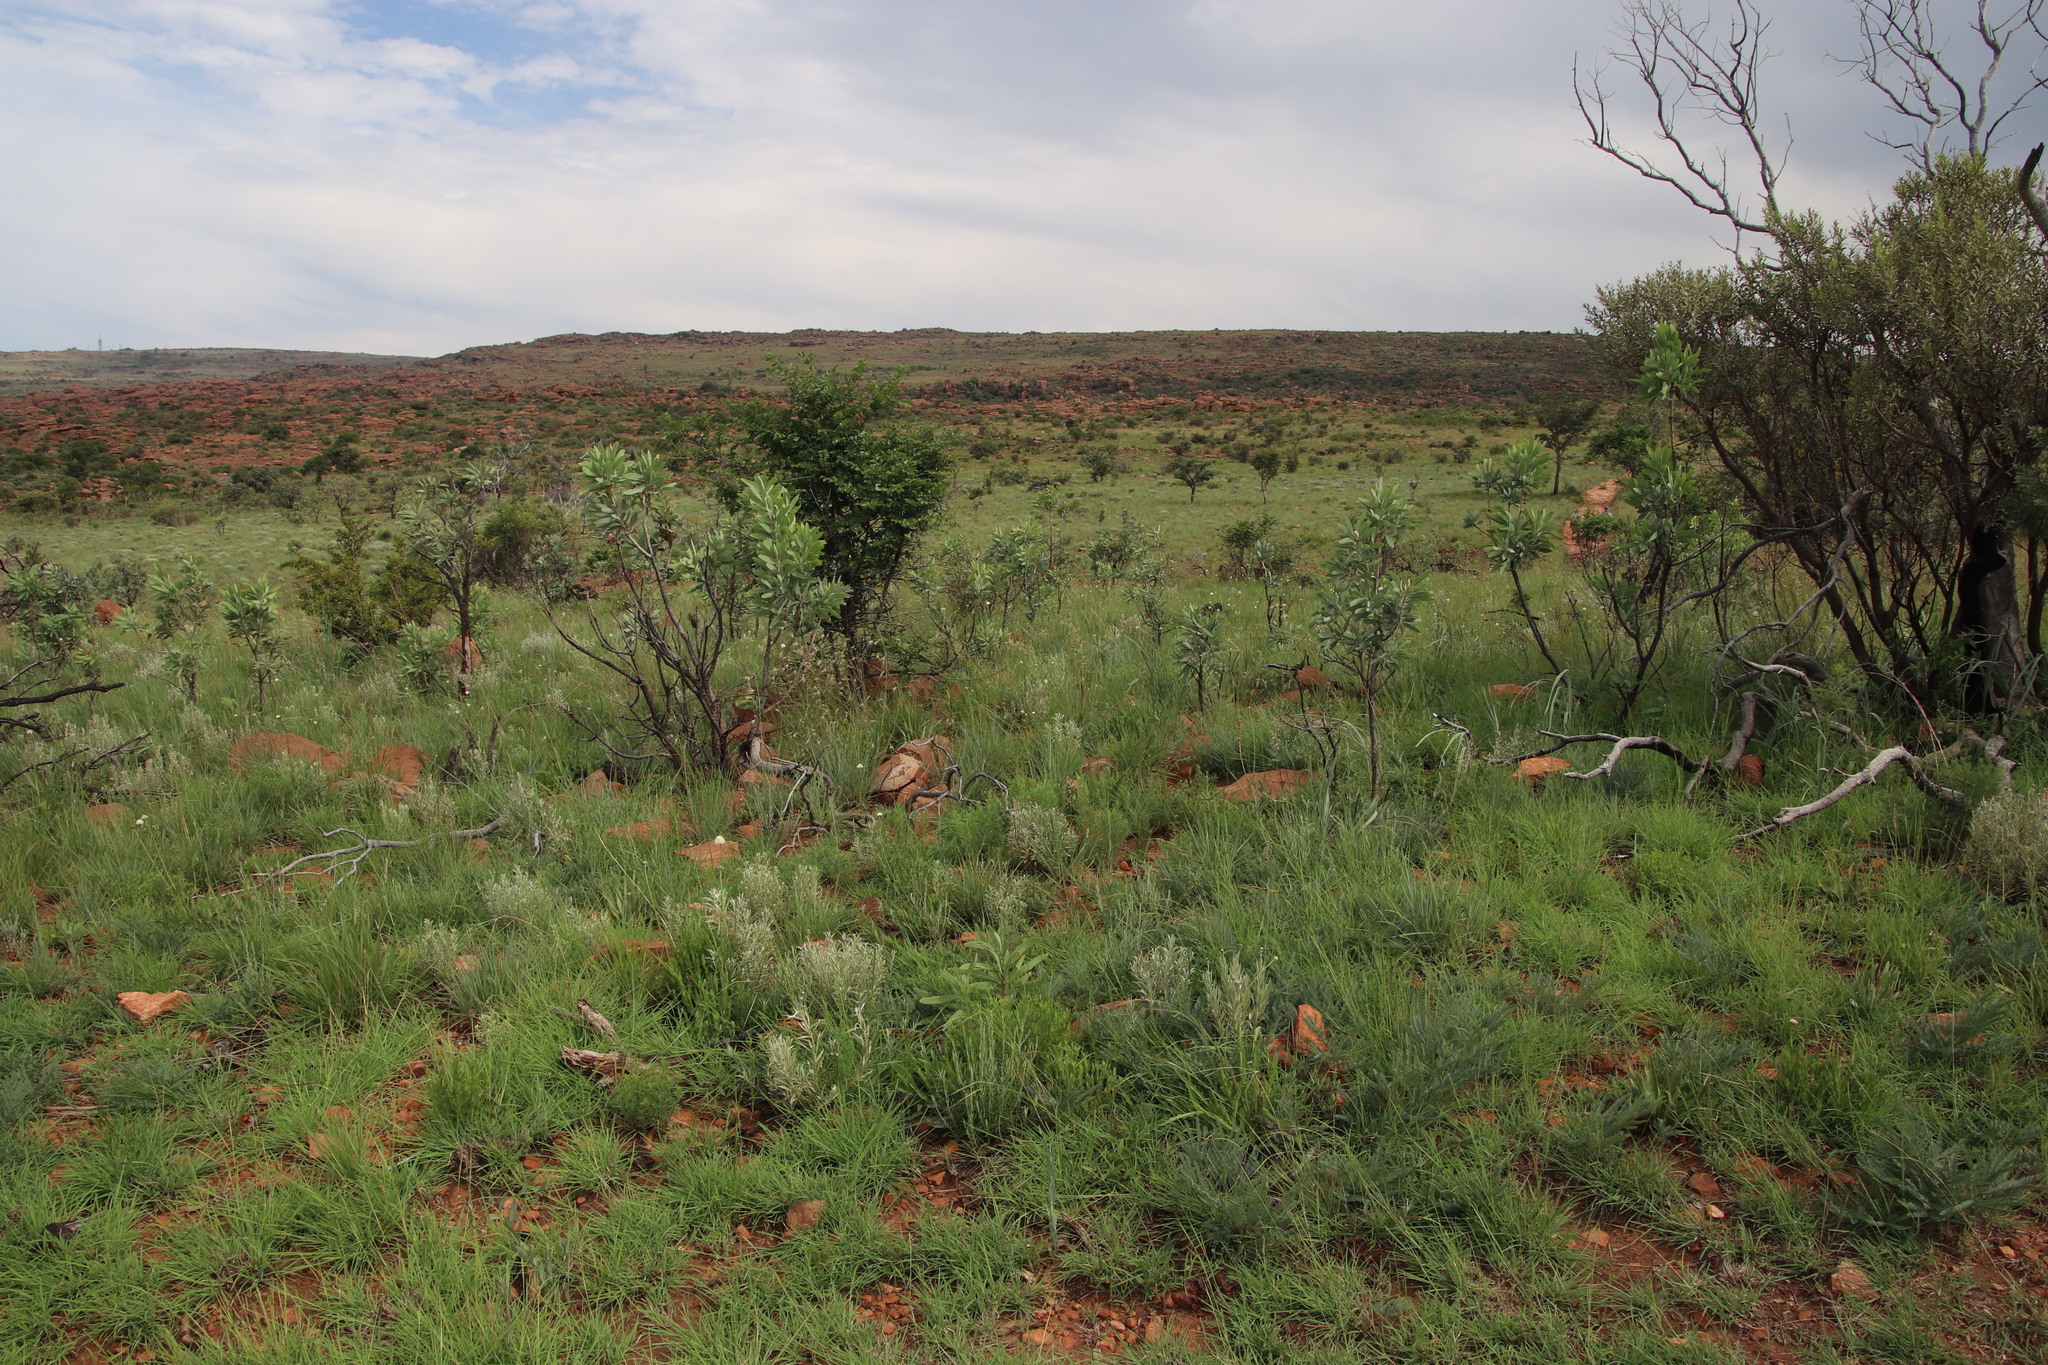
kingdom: Plantae
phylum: Tracheophyta
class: Magnoliopsida
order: Proteales
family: Proteaceae
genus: Protea
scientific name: Protea caffra
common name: Common sugarbush
